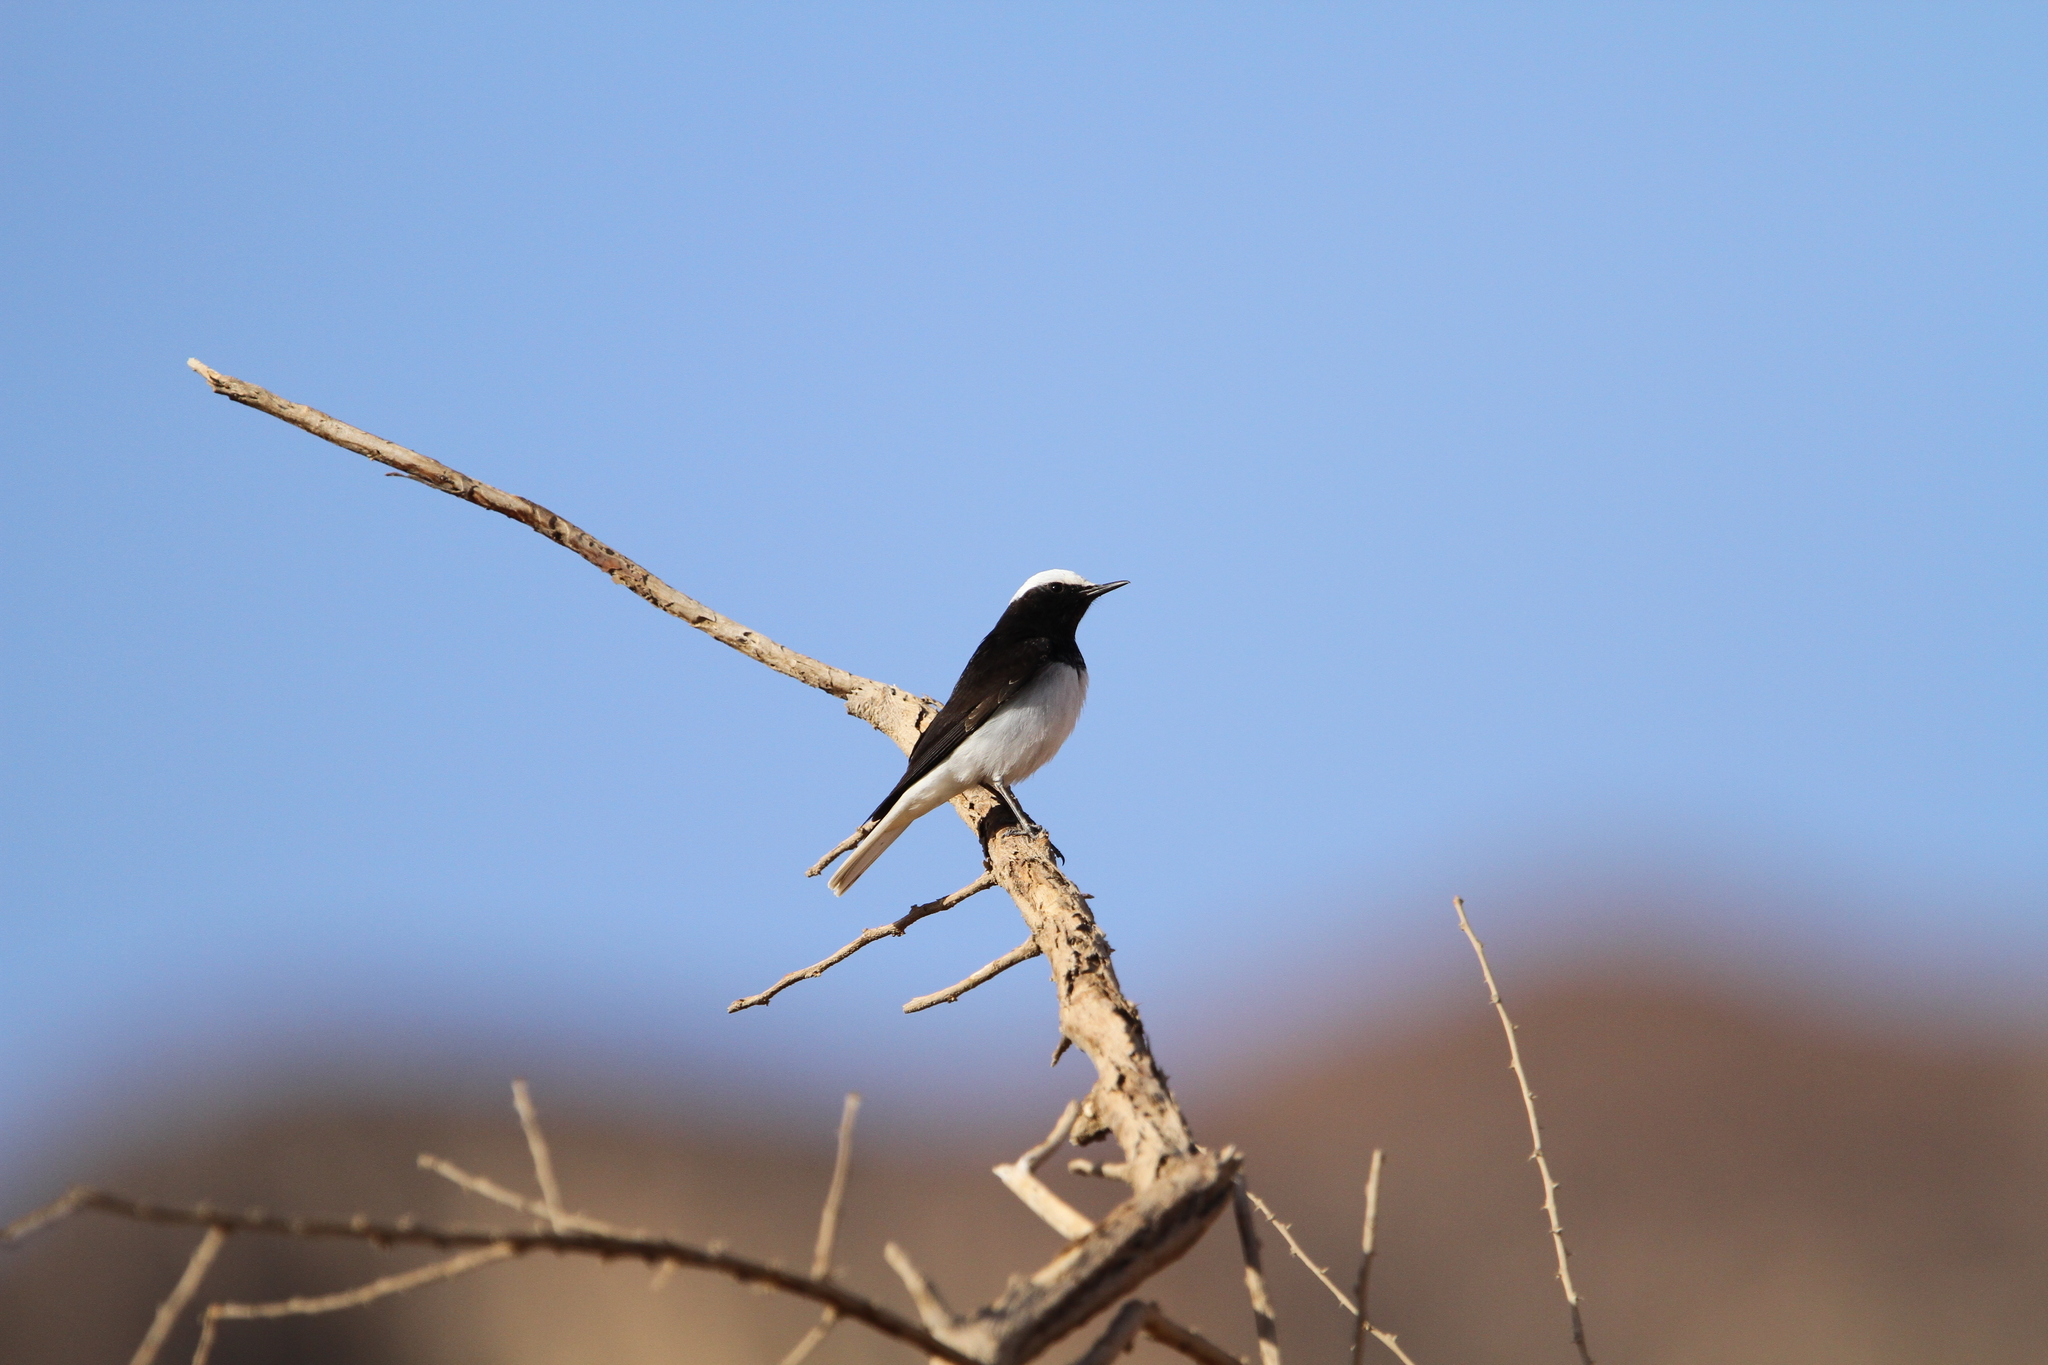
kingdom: Animalia
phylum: Chordata
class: Aves
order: Passeriformes
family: Muscicapidae
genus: Oenanthe
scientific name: Oenanthe monacha
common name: Hooded wheatear
